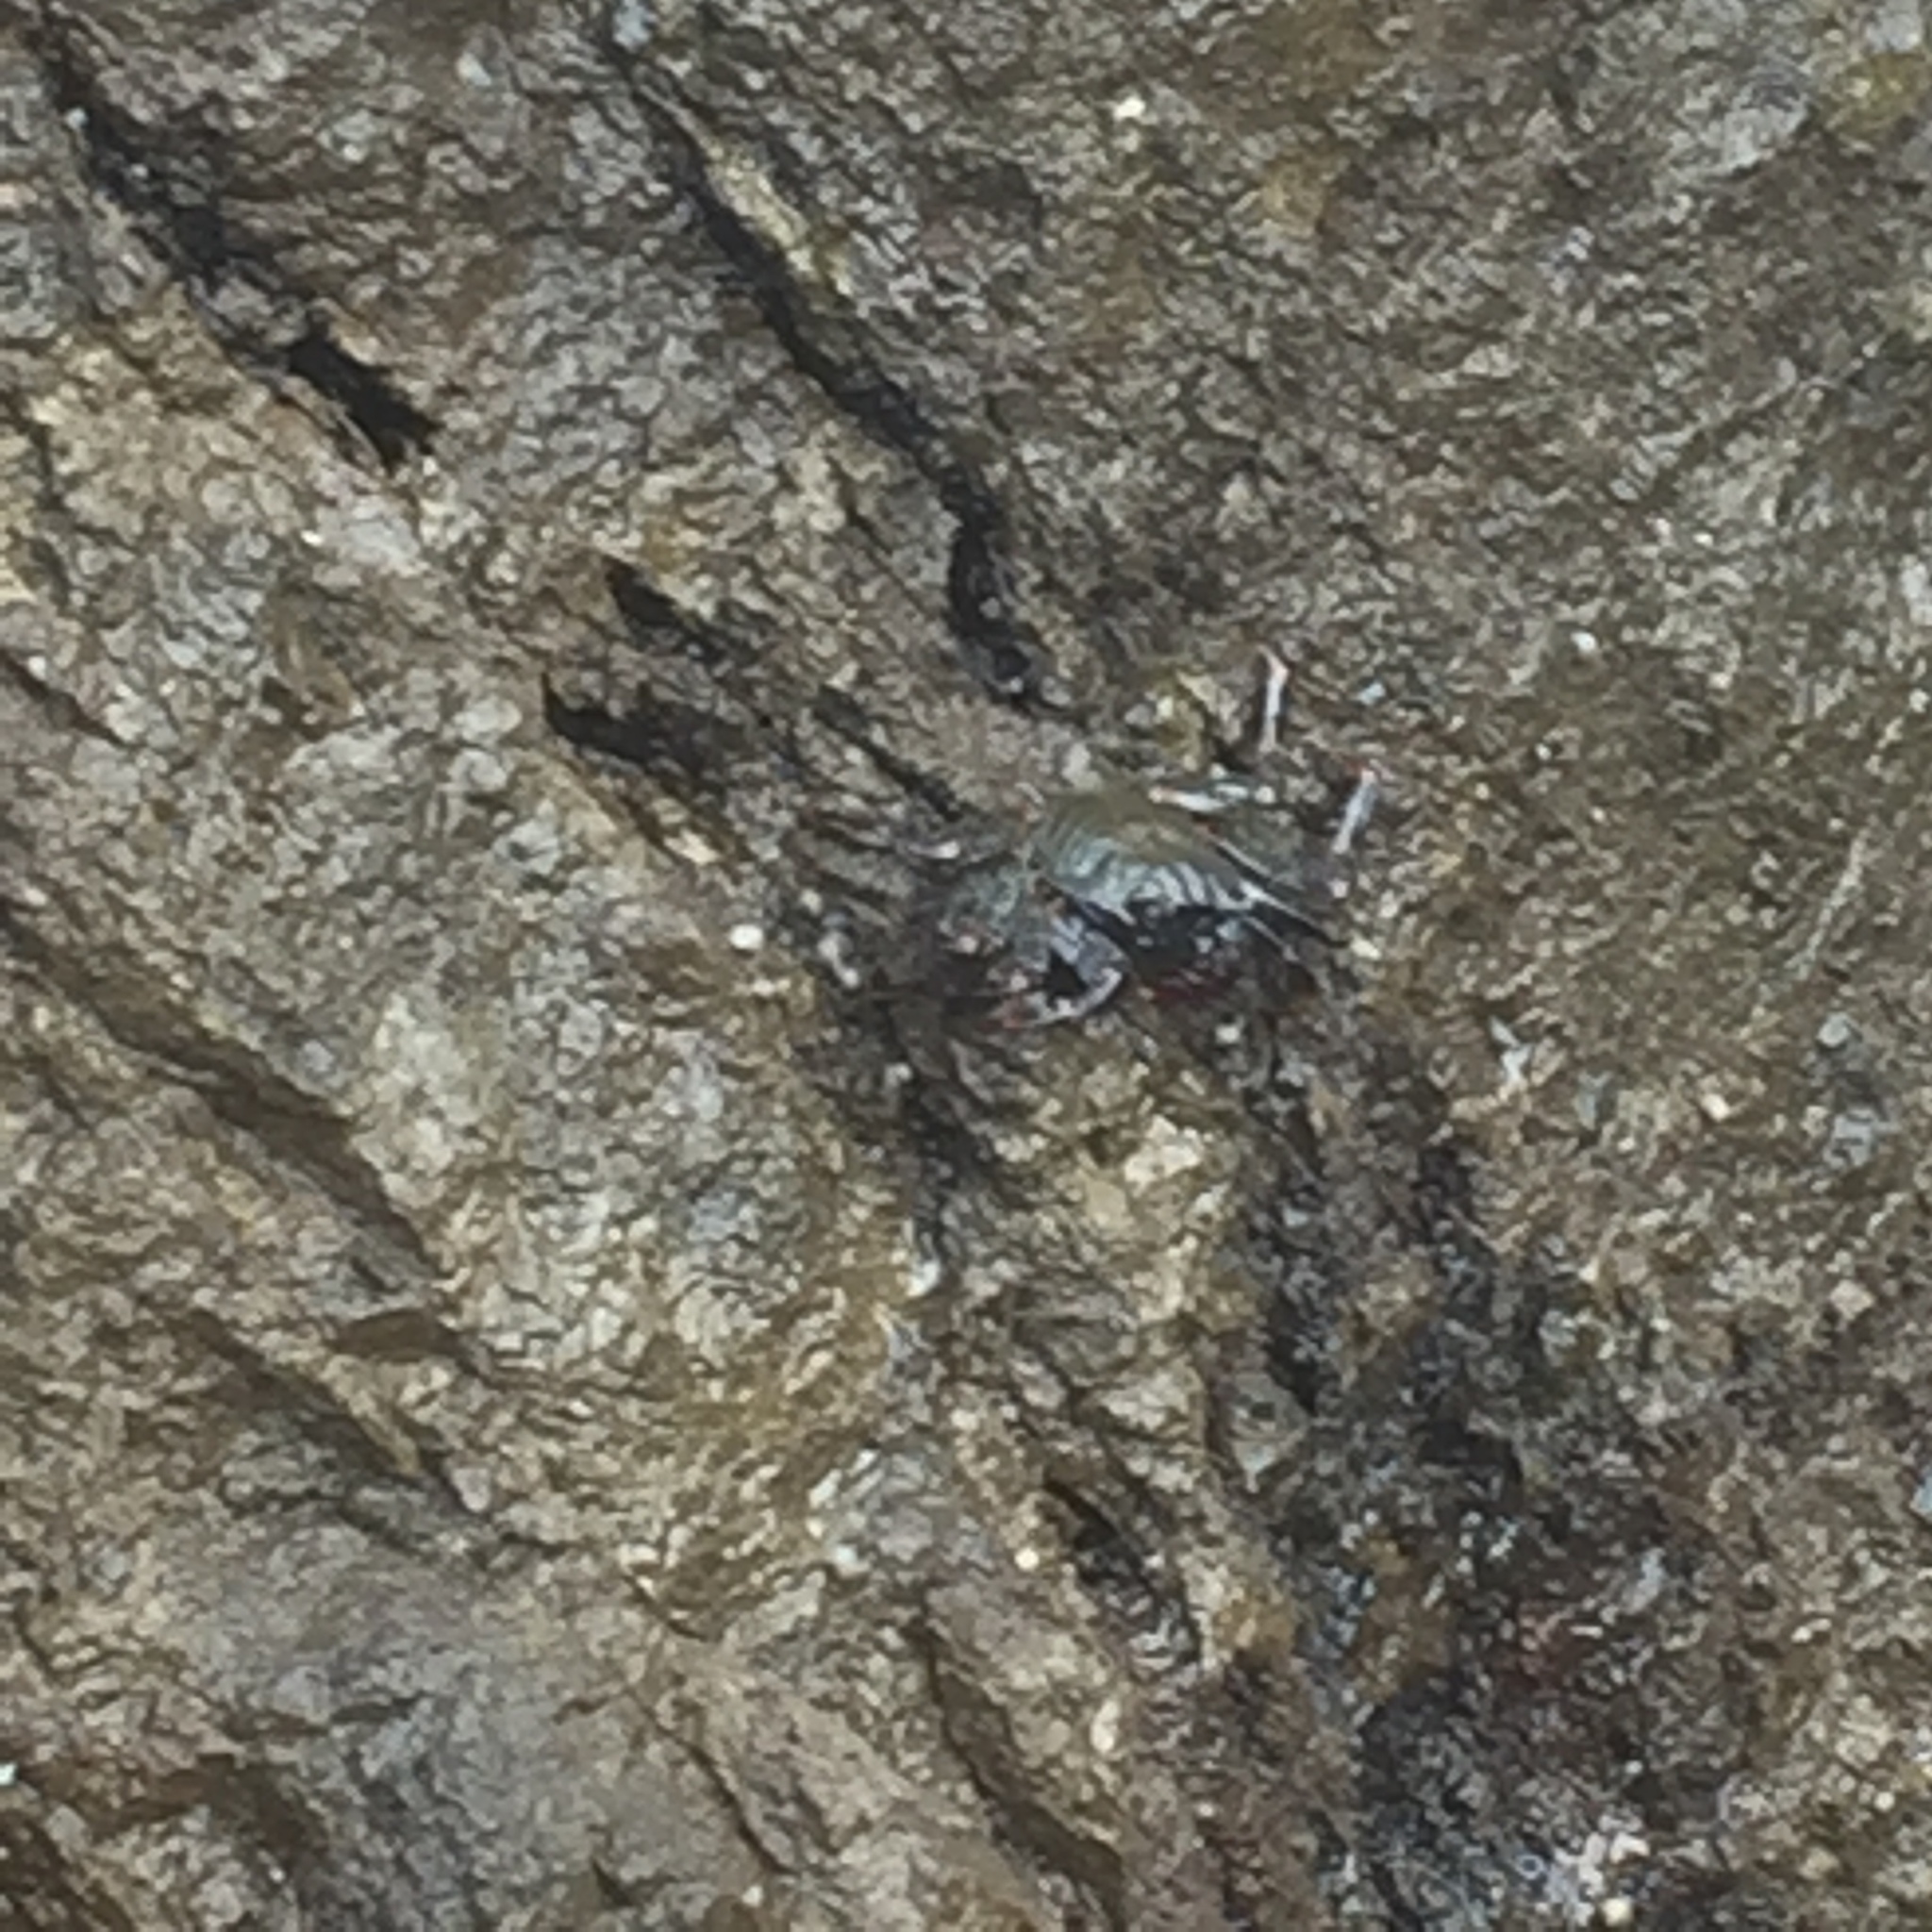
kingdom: Animalia
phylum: Arthropoda
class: Malacostraca
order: Decapoda
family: Grapsidae
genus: Grapsus
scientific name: Grapsus adscensionis
